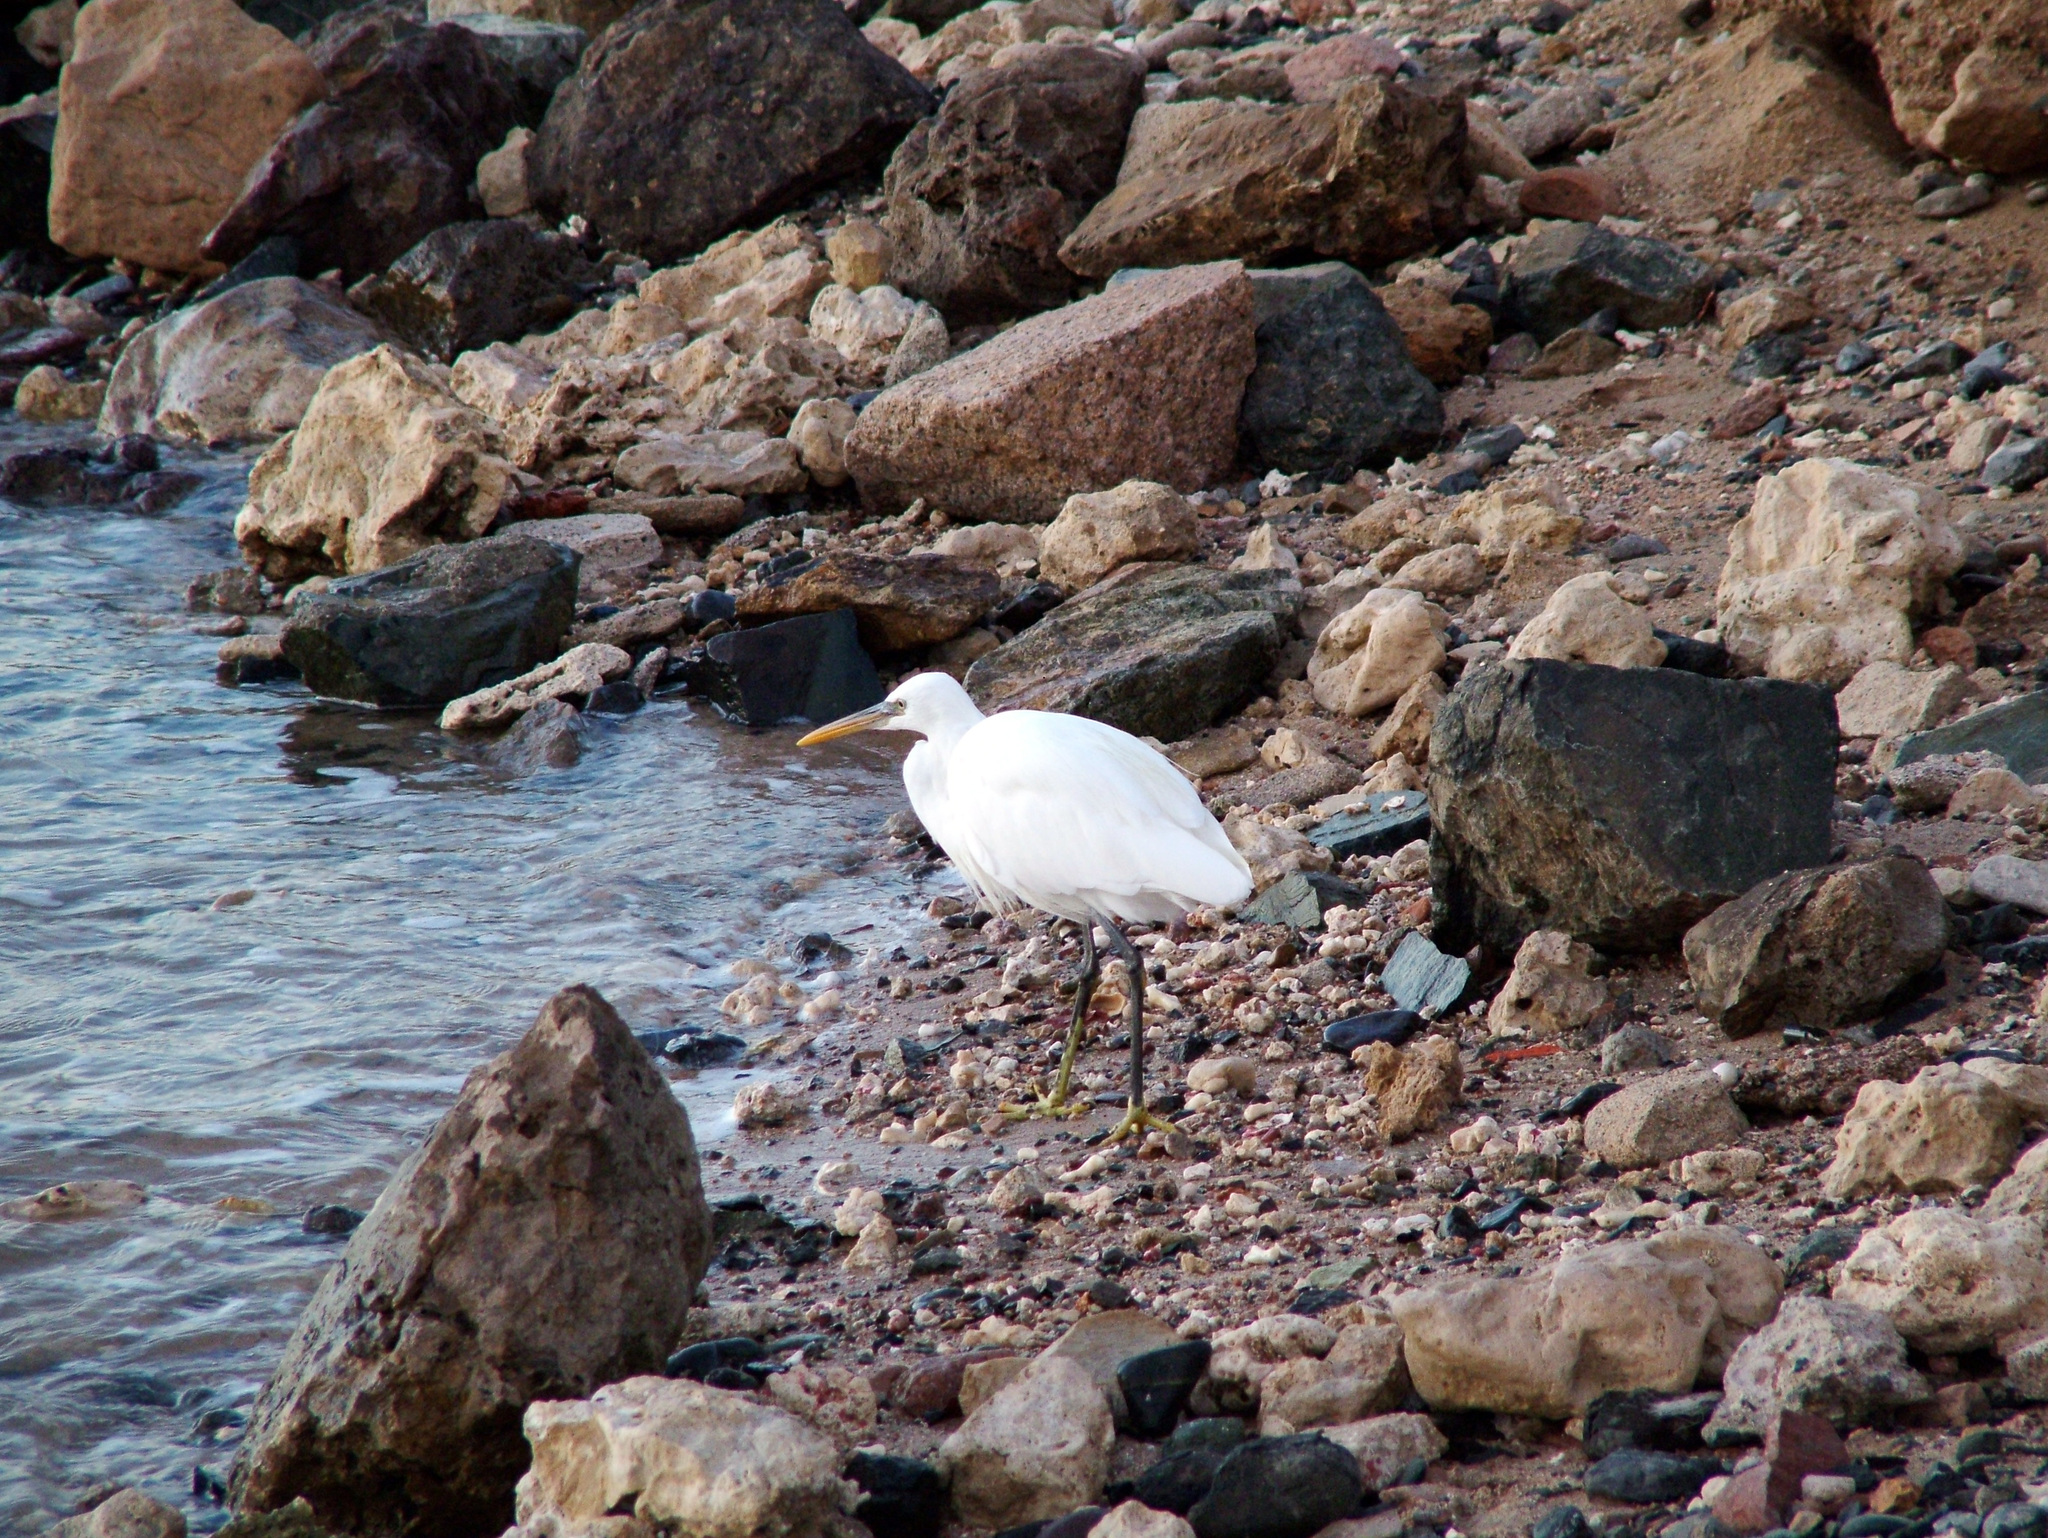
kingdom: Animalia
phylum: Chordata
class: Aves
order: Pelecaniformes
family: Ardeidae
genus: Egretta
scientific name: Egretta gularis
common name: Western reef-heron
